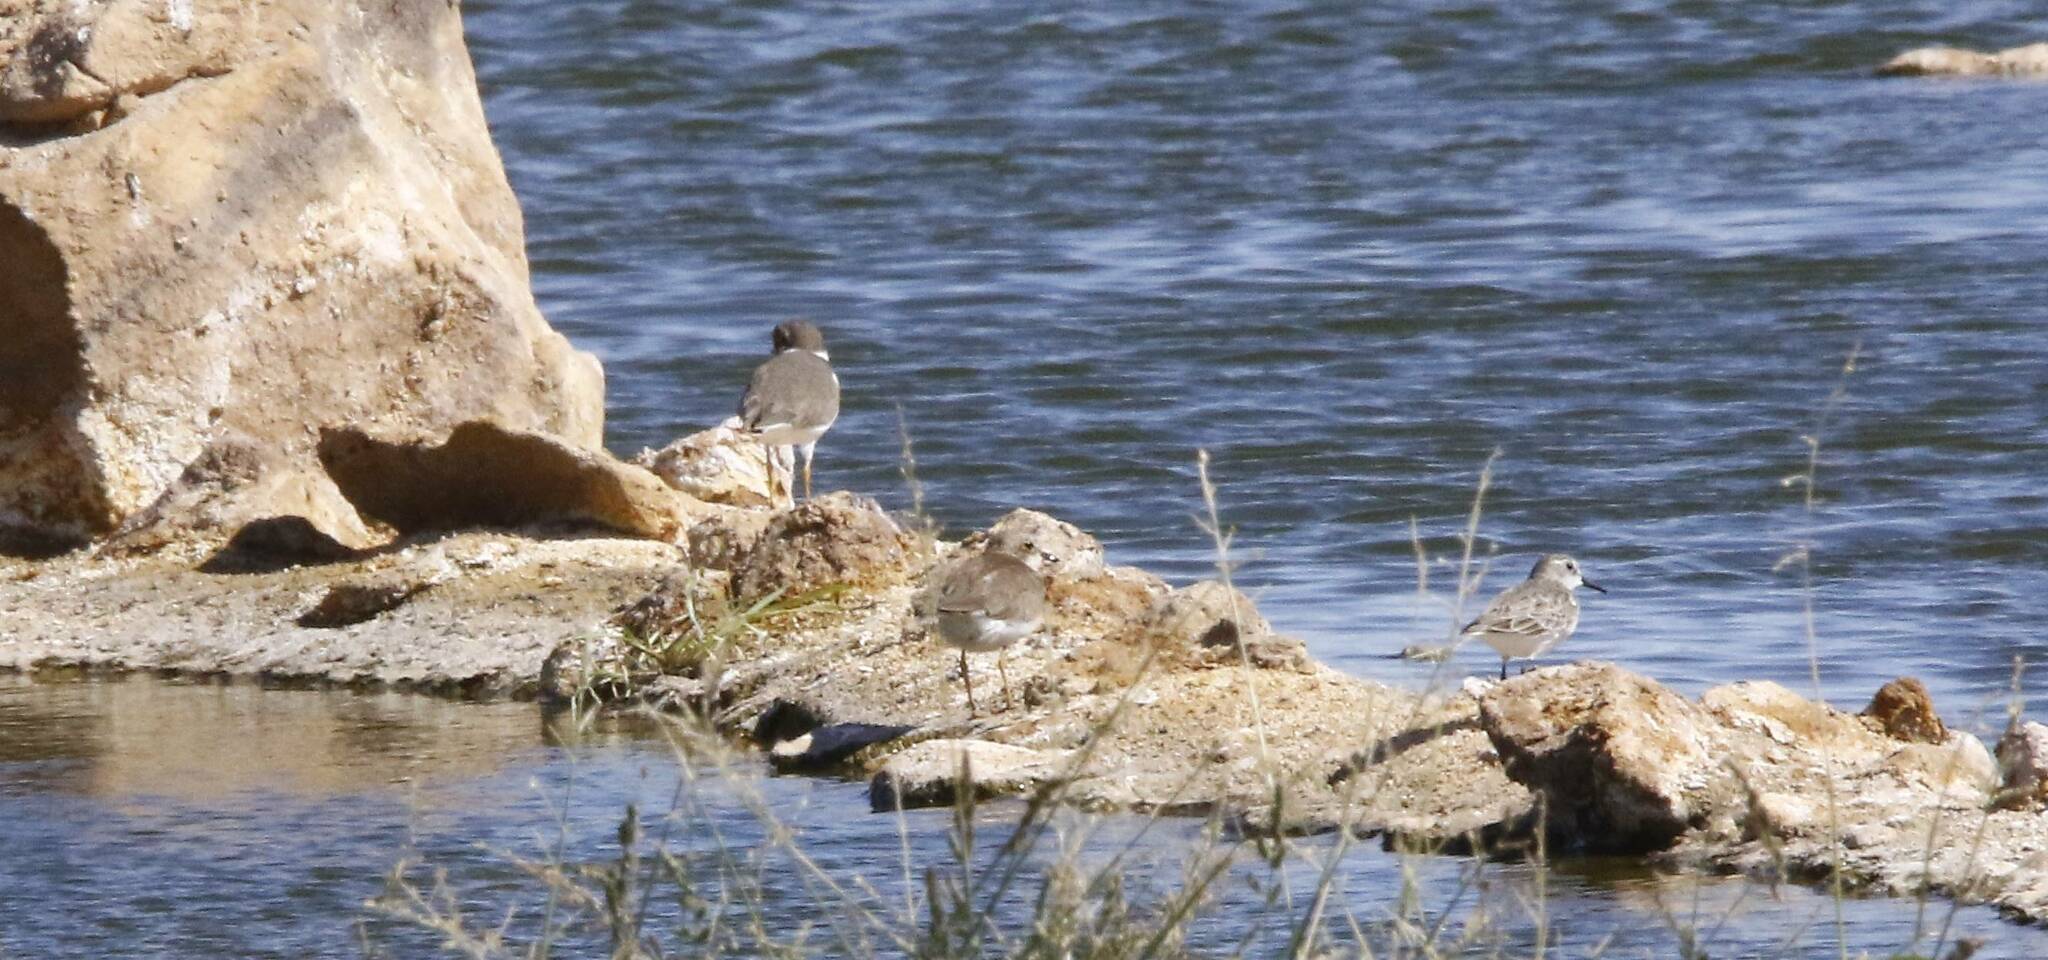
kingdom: Animalia
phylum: Chordata
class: Aves
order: Charadriiformes
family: Scolopacidae
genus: Calidris
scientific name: Calidris minuta
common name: Little stint
